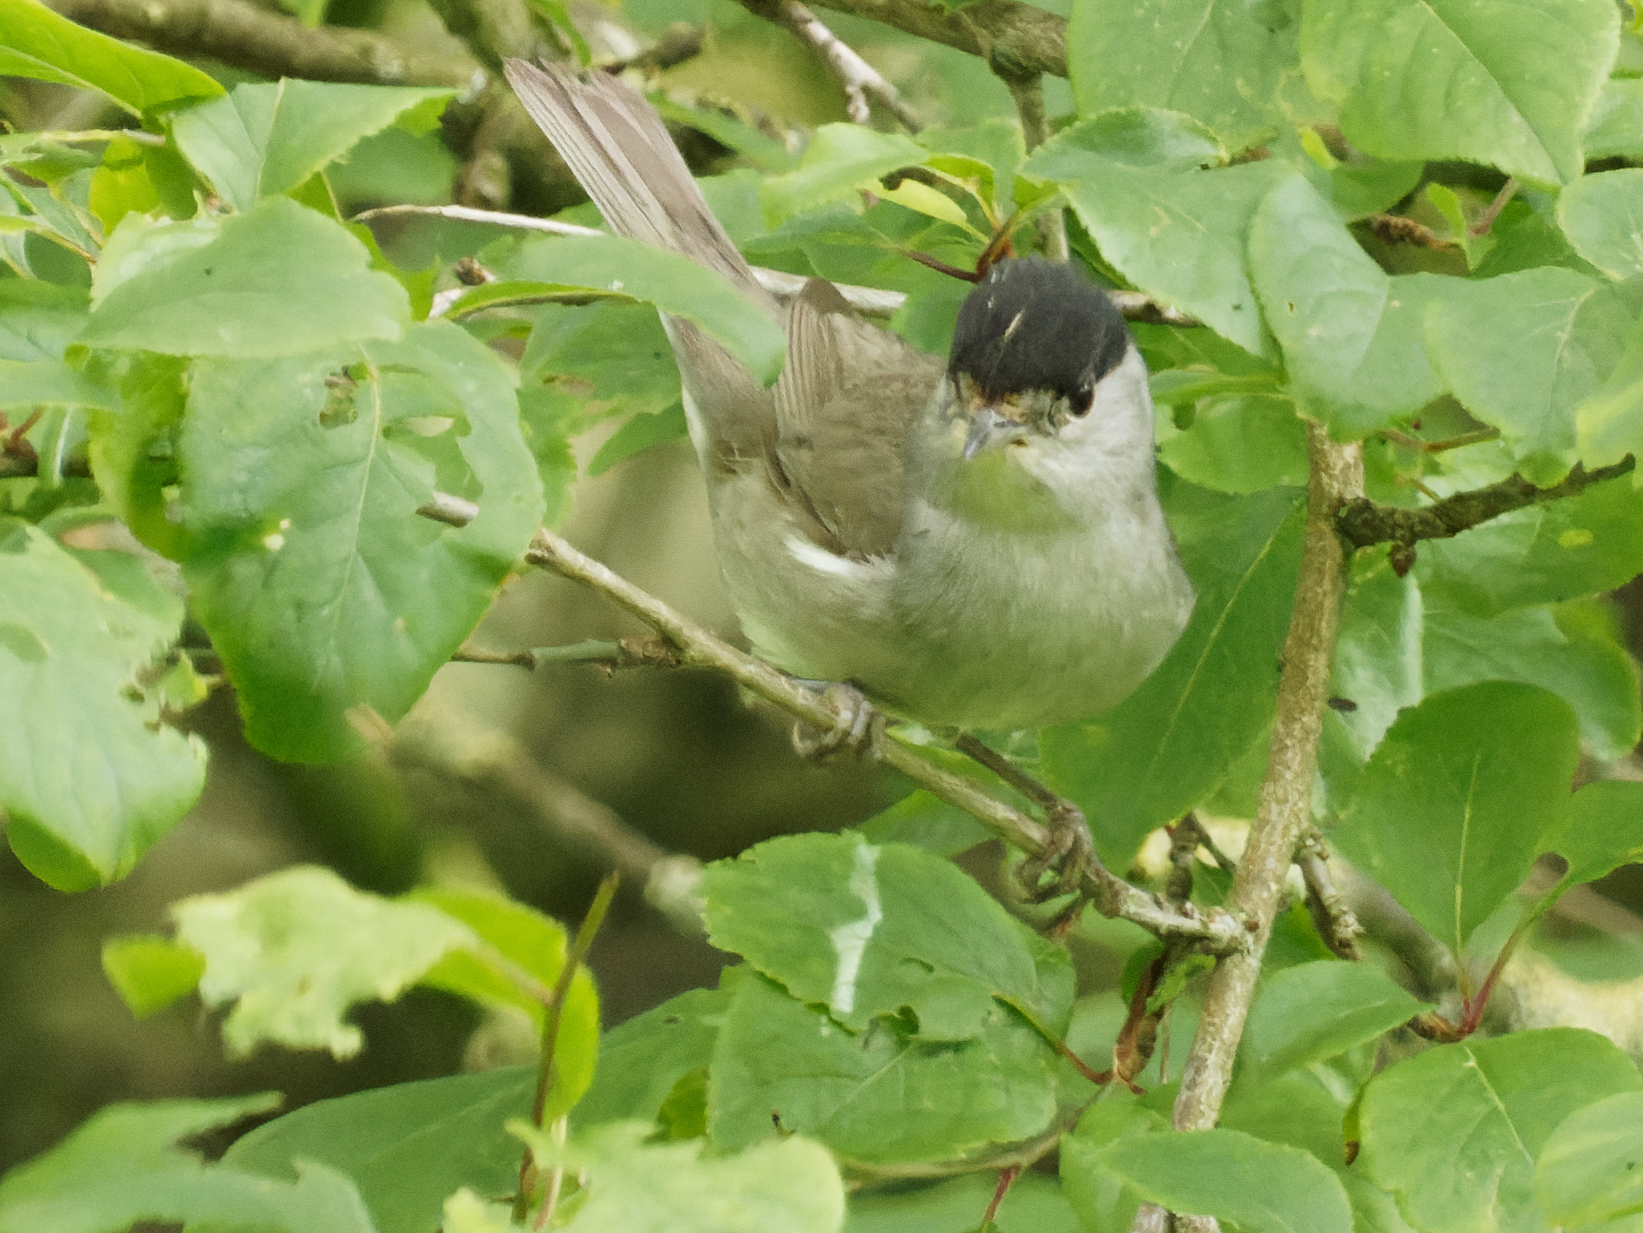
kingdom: Animalia
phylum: Chordata
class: Aves
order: Passeriformes
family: Sylviidae
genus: Sylvia
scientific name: Sylvia atricapilla
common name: Eurasian blackcap
